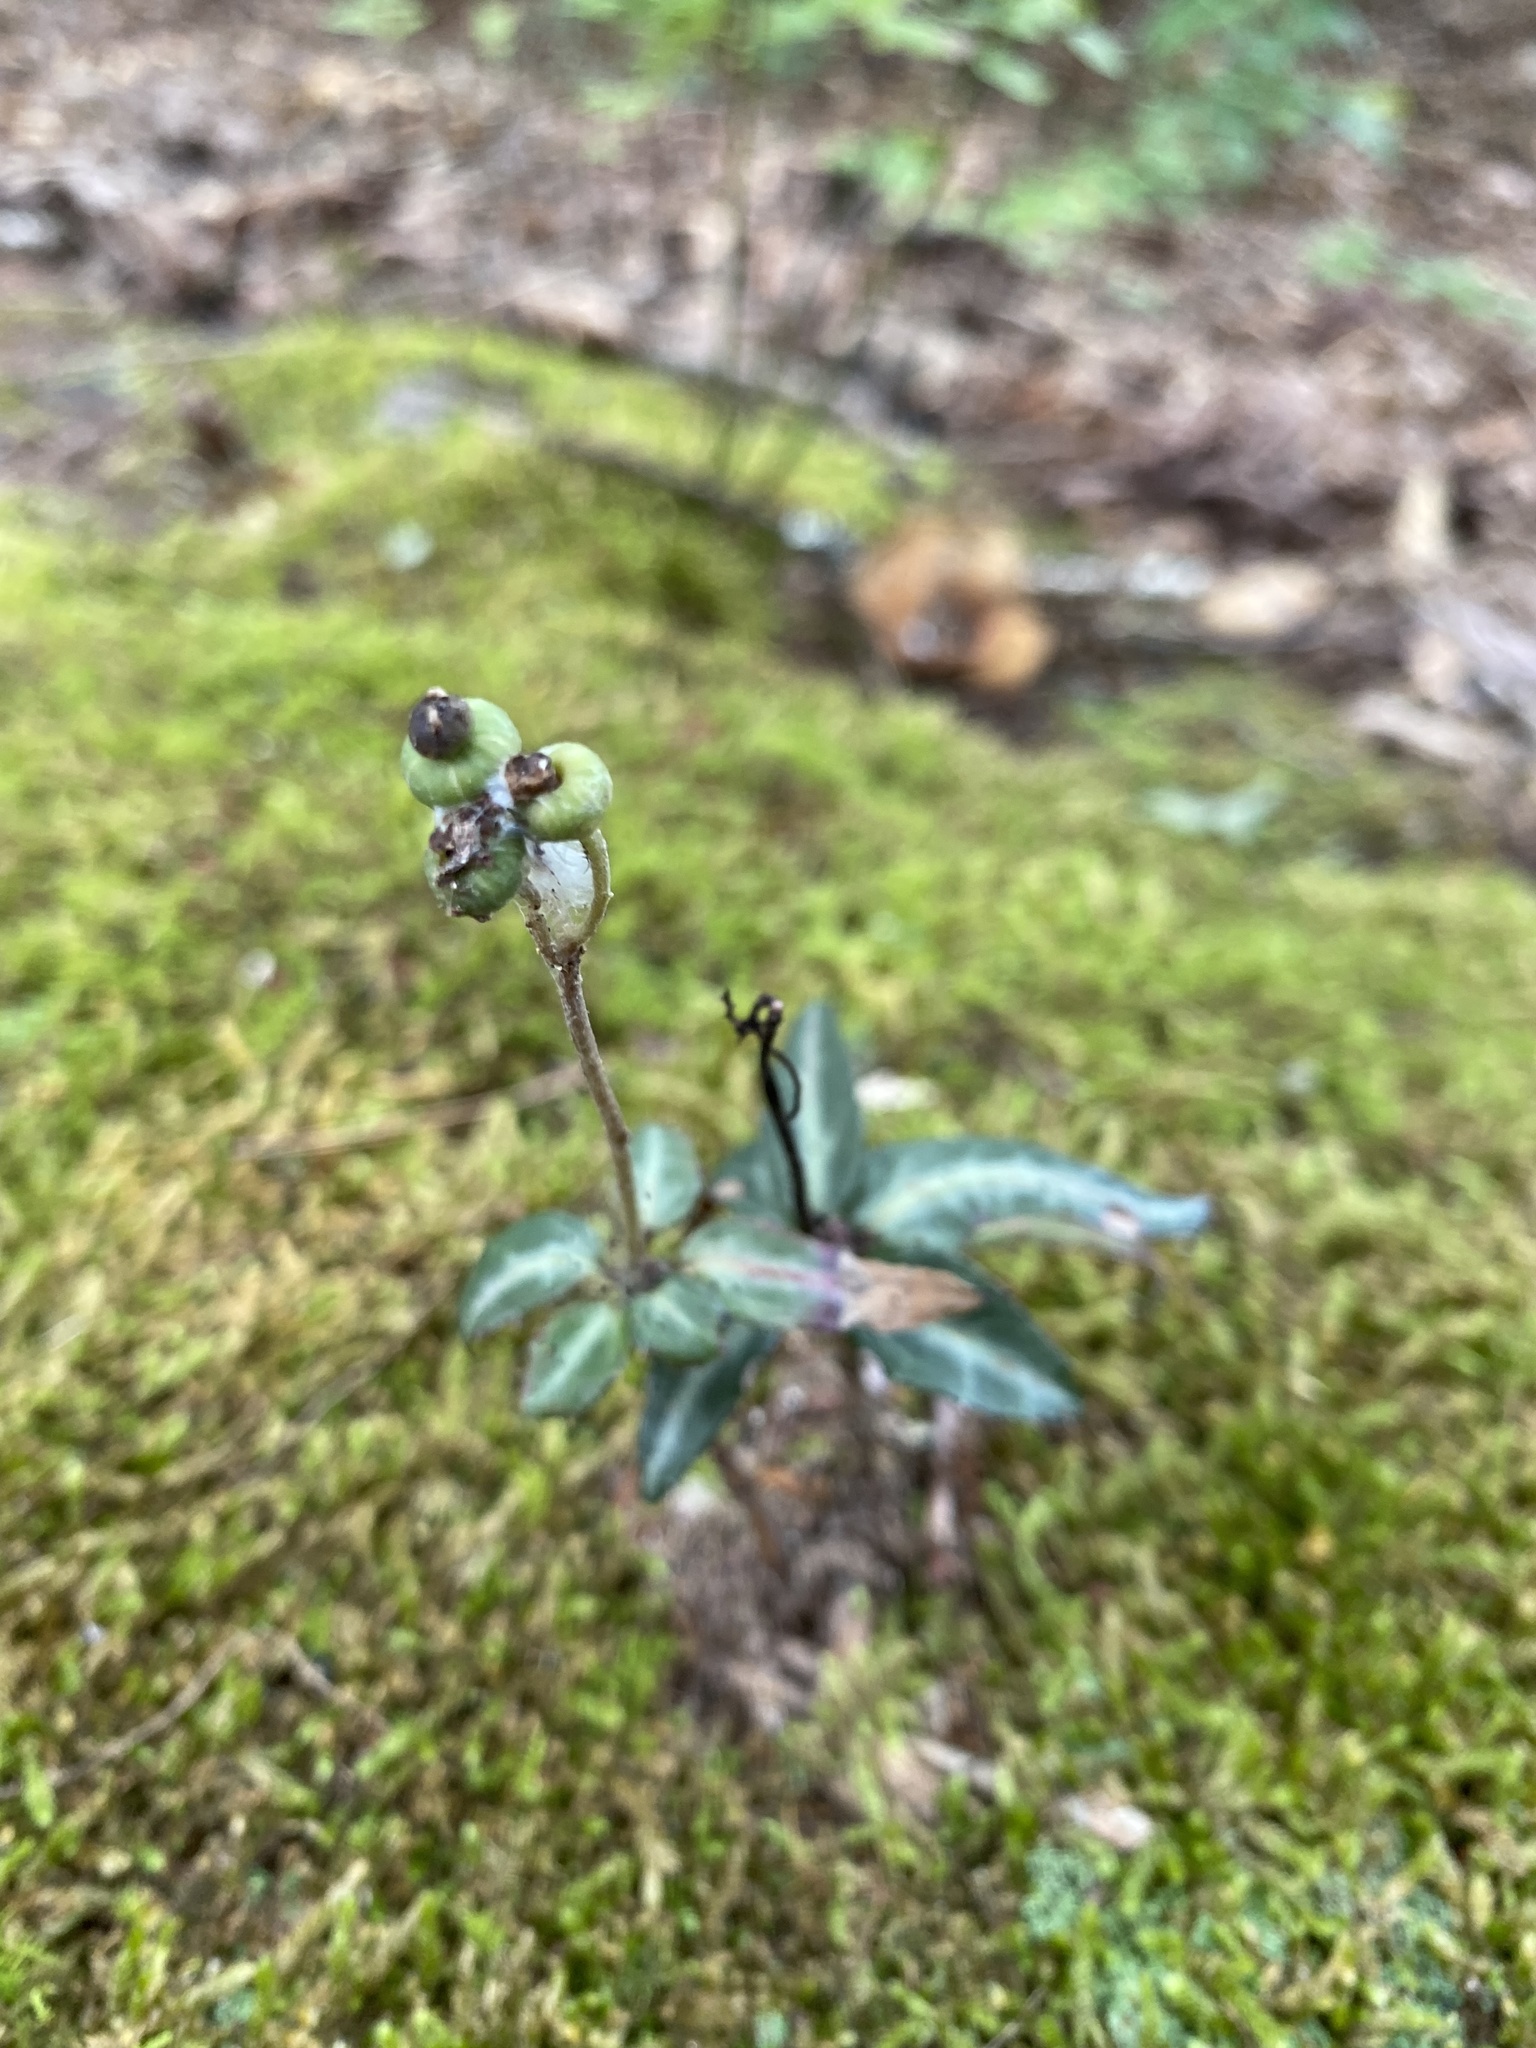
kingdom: Plantae
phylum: Tracheophyta
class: Magnoliopsida
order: Ericales
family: Ericaceae
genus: Chimaphila
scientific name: Chimaphila maculata
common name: Spotted pipsissewa
